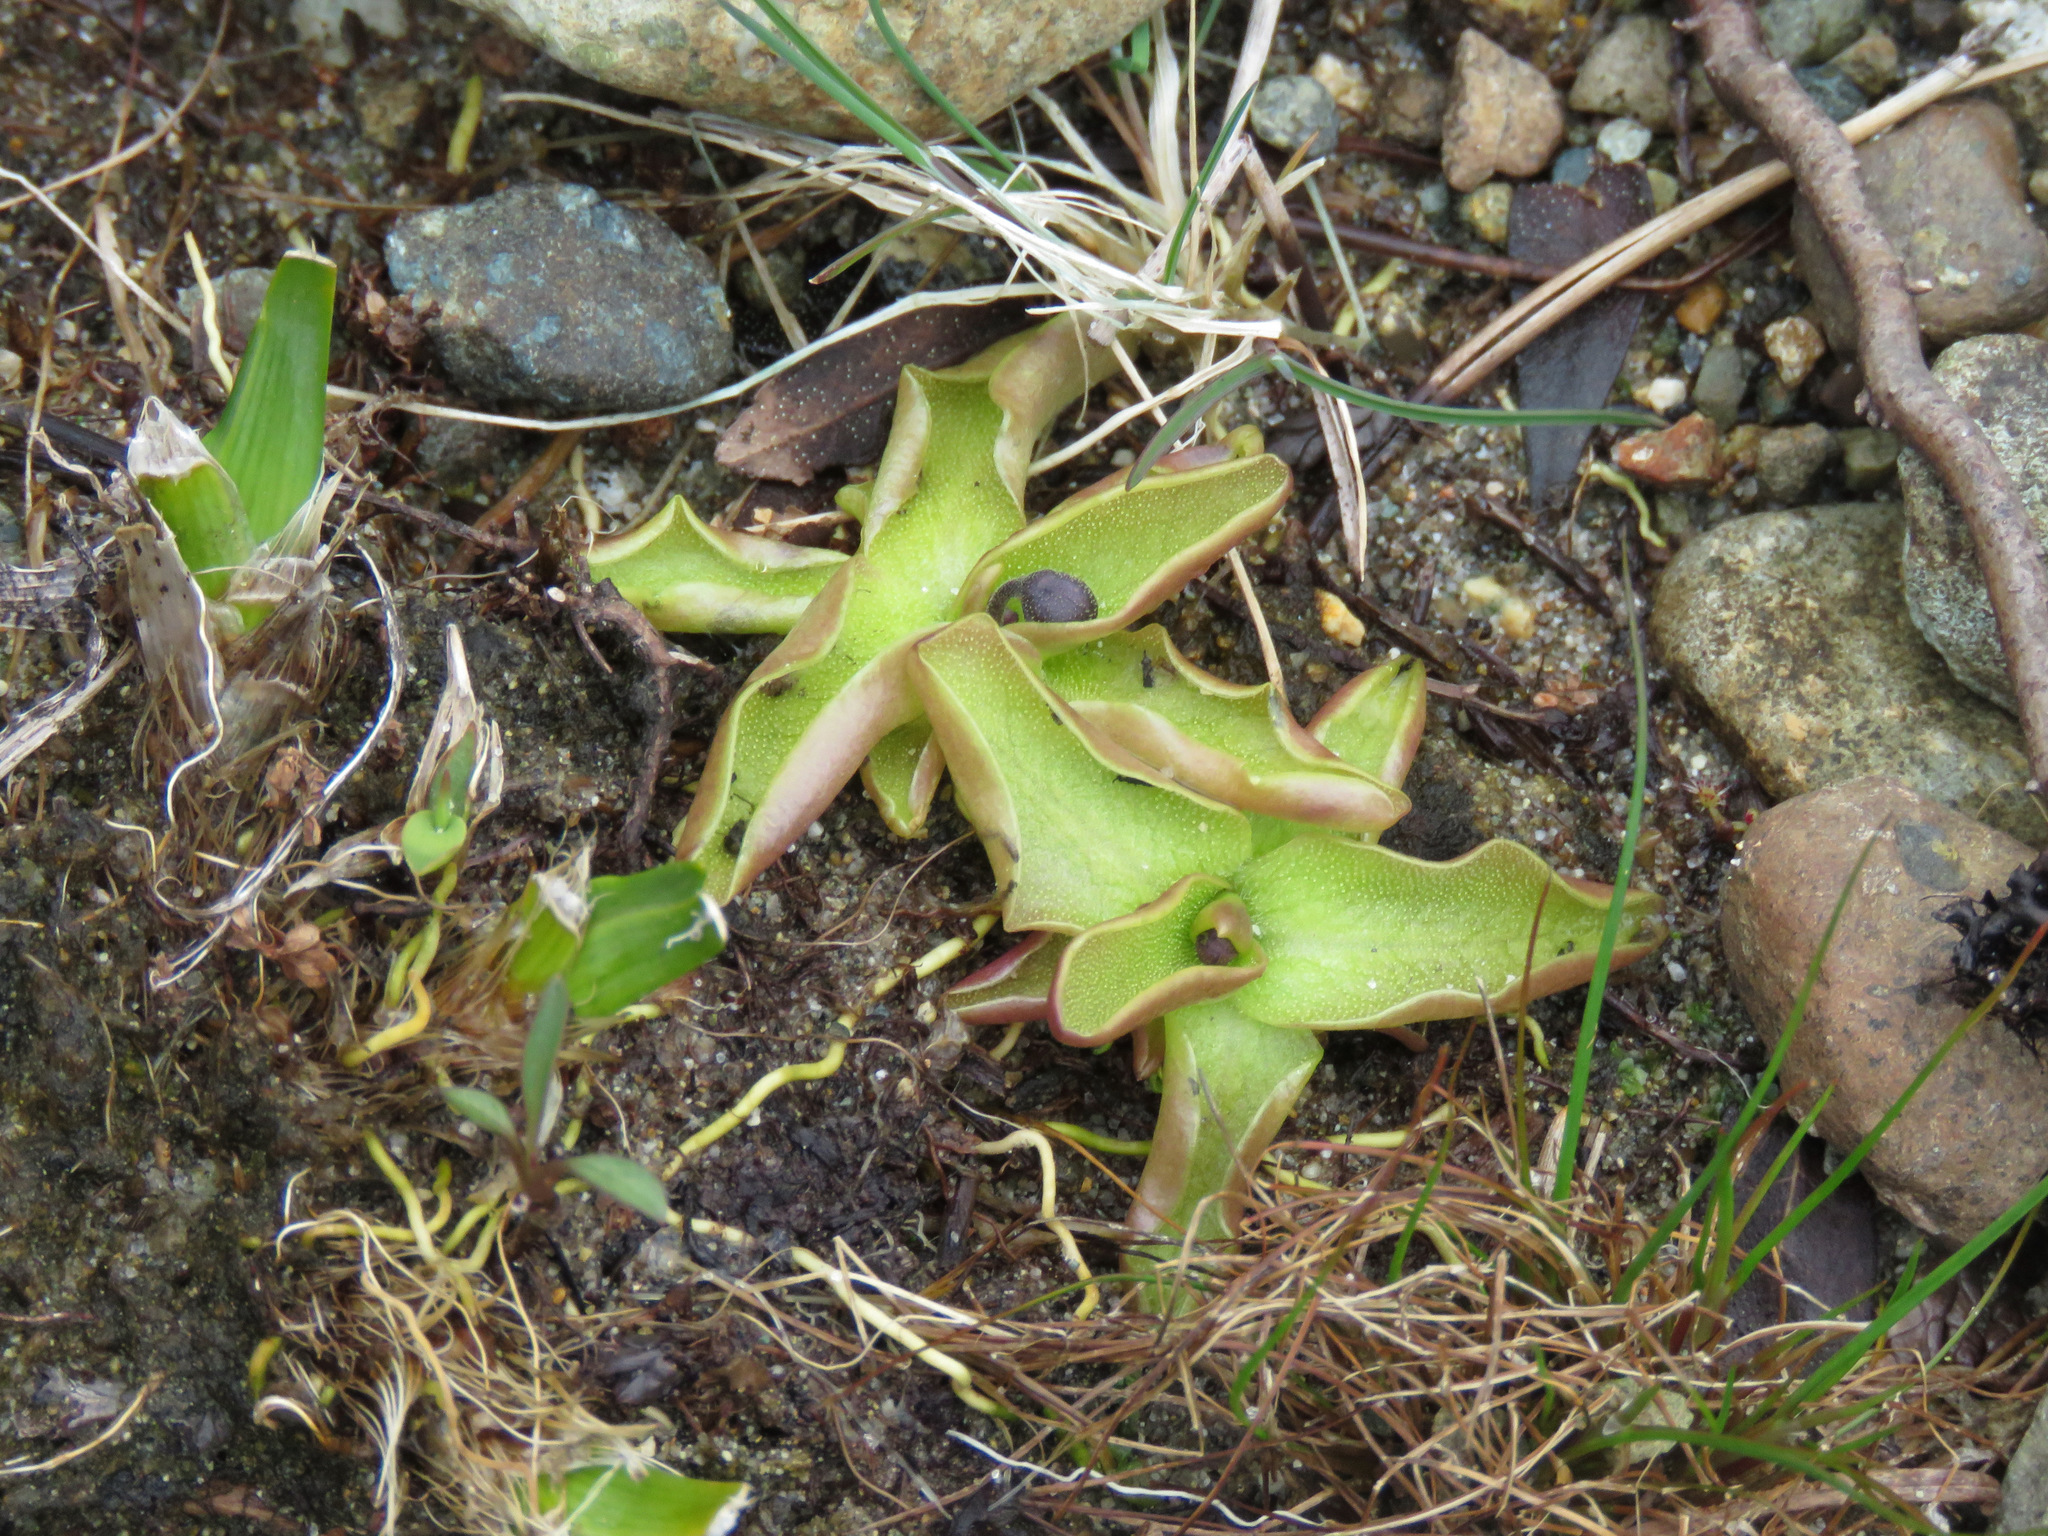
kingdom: Plantae
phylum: Tracheophyta
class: Magnoliopsida
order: Lamiales
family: Lentibulariaceae
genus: Pinguicula
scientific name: Pinguicula vulgaris
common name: Common butterwort
